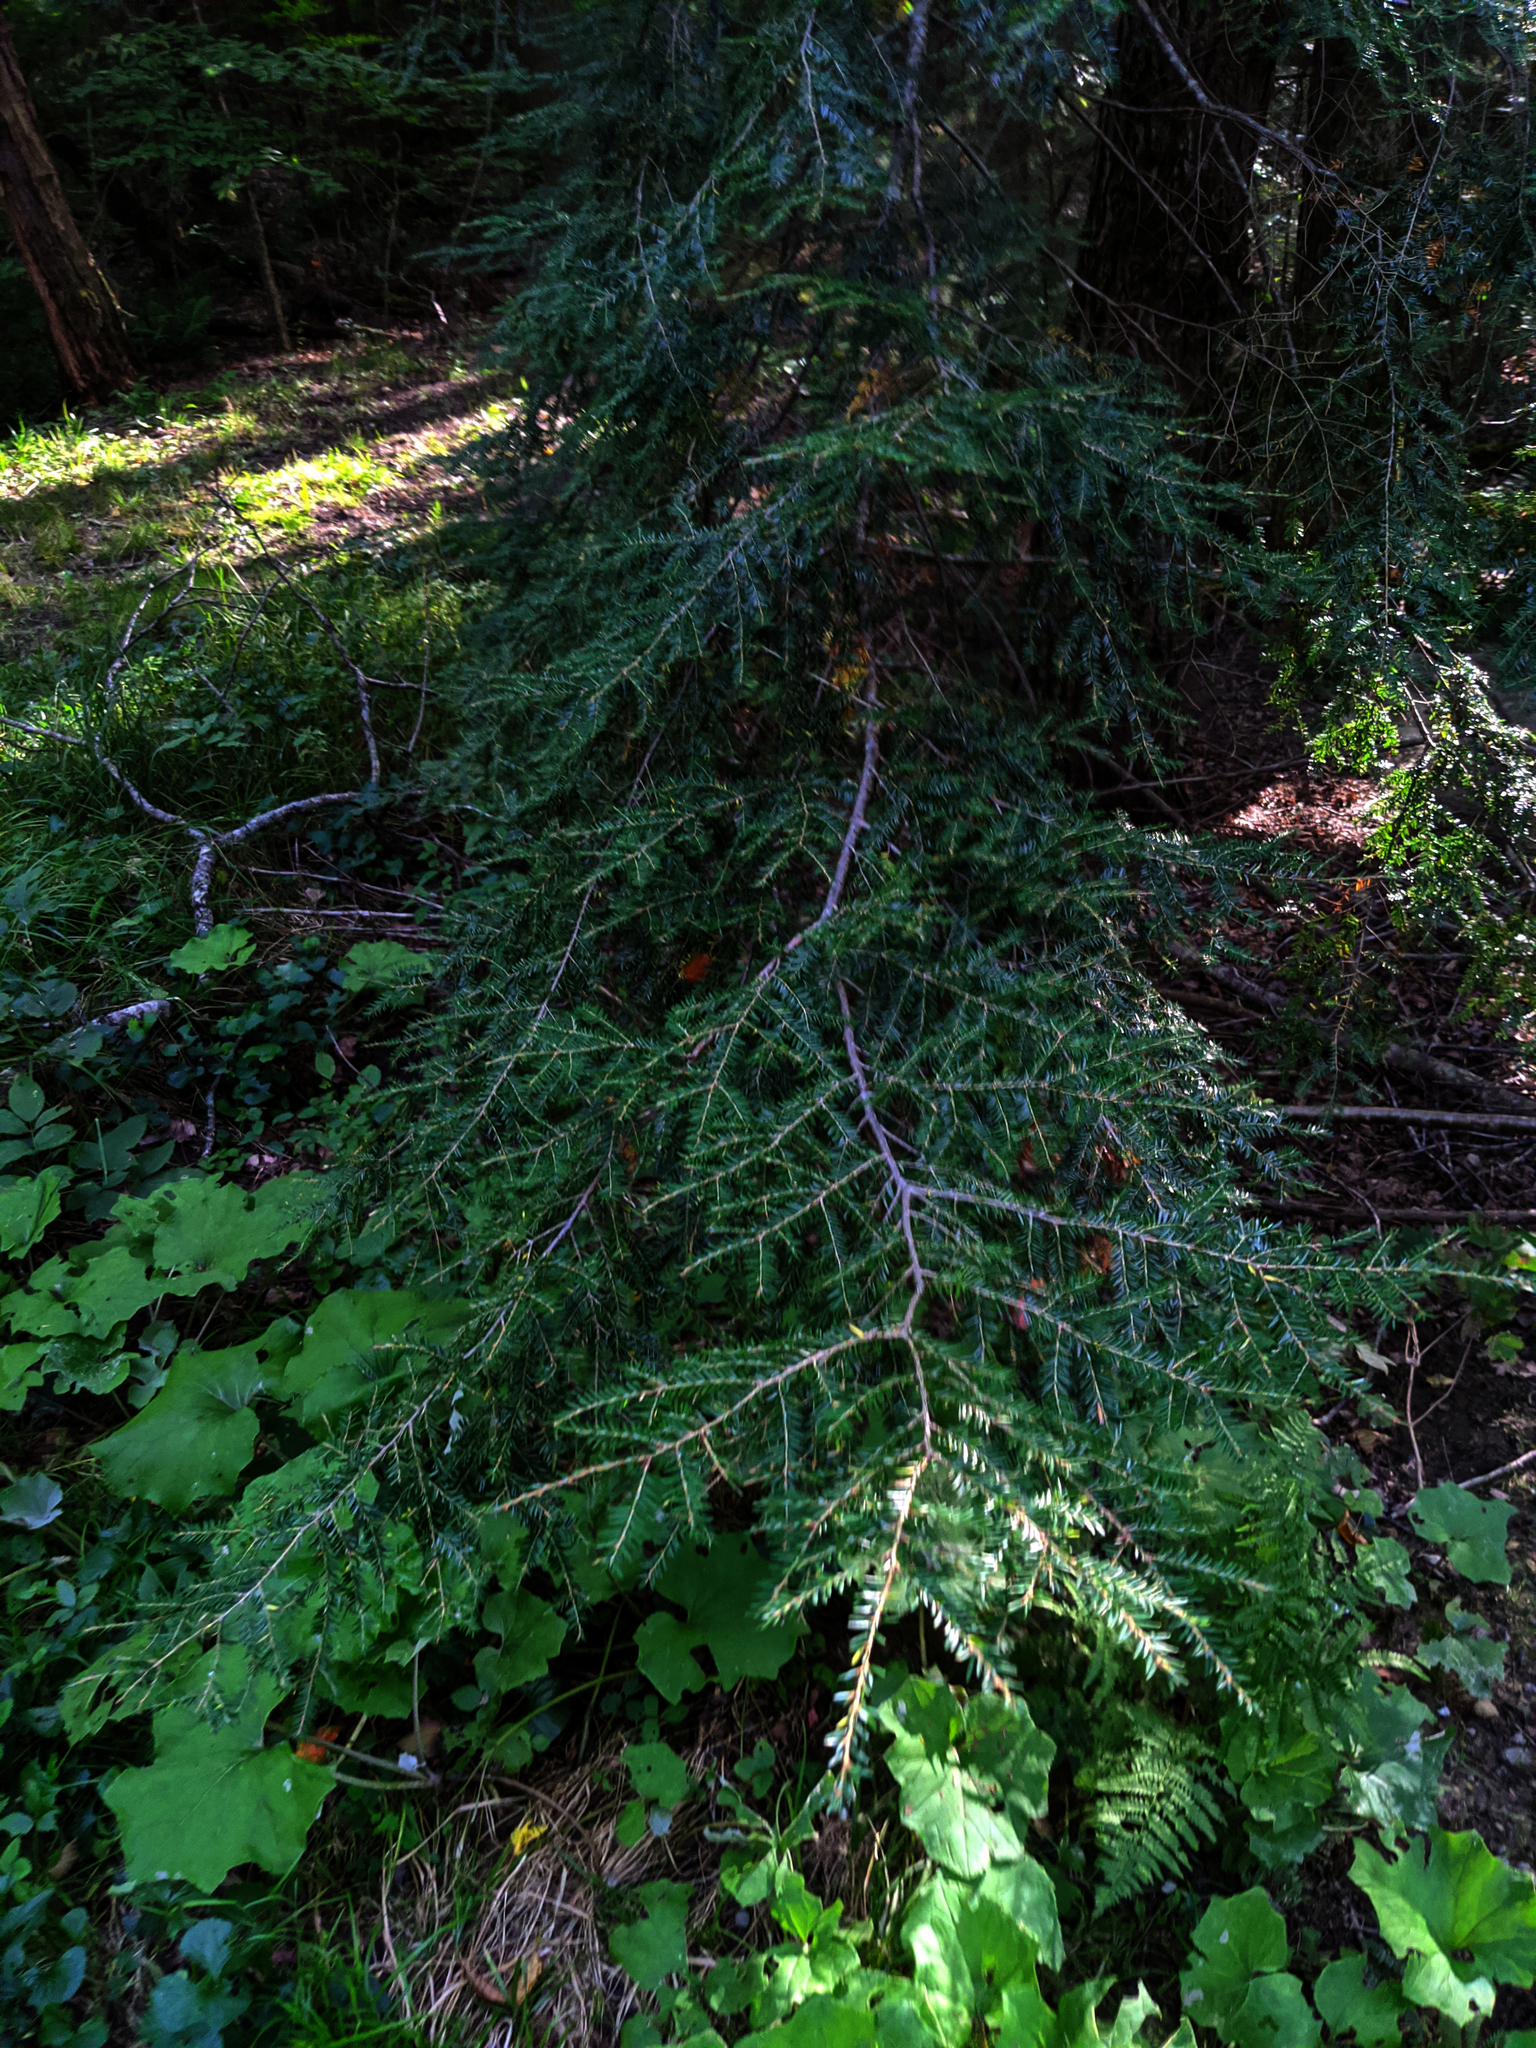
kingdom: Plantae
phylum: Tracheophyta
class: Magnoliopsida
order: Asterales
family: Asteraceae
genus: Tussilago
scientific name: Tussilago farfara
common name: Coltsfoot
